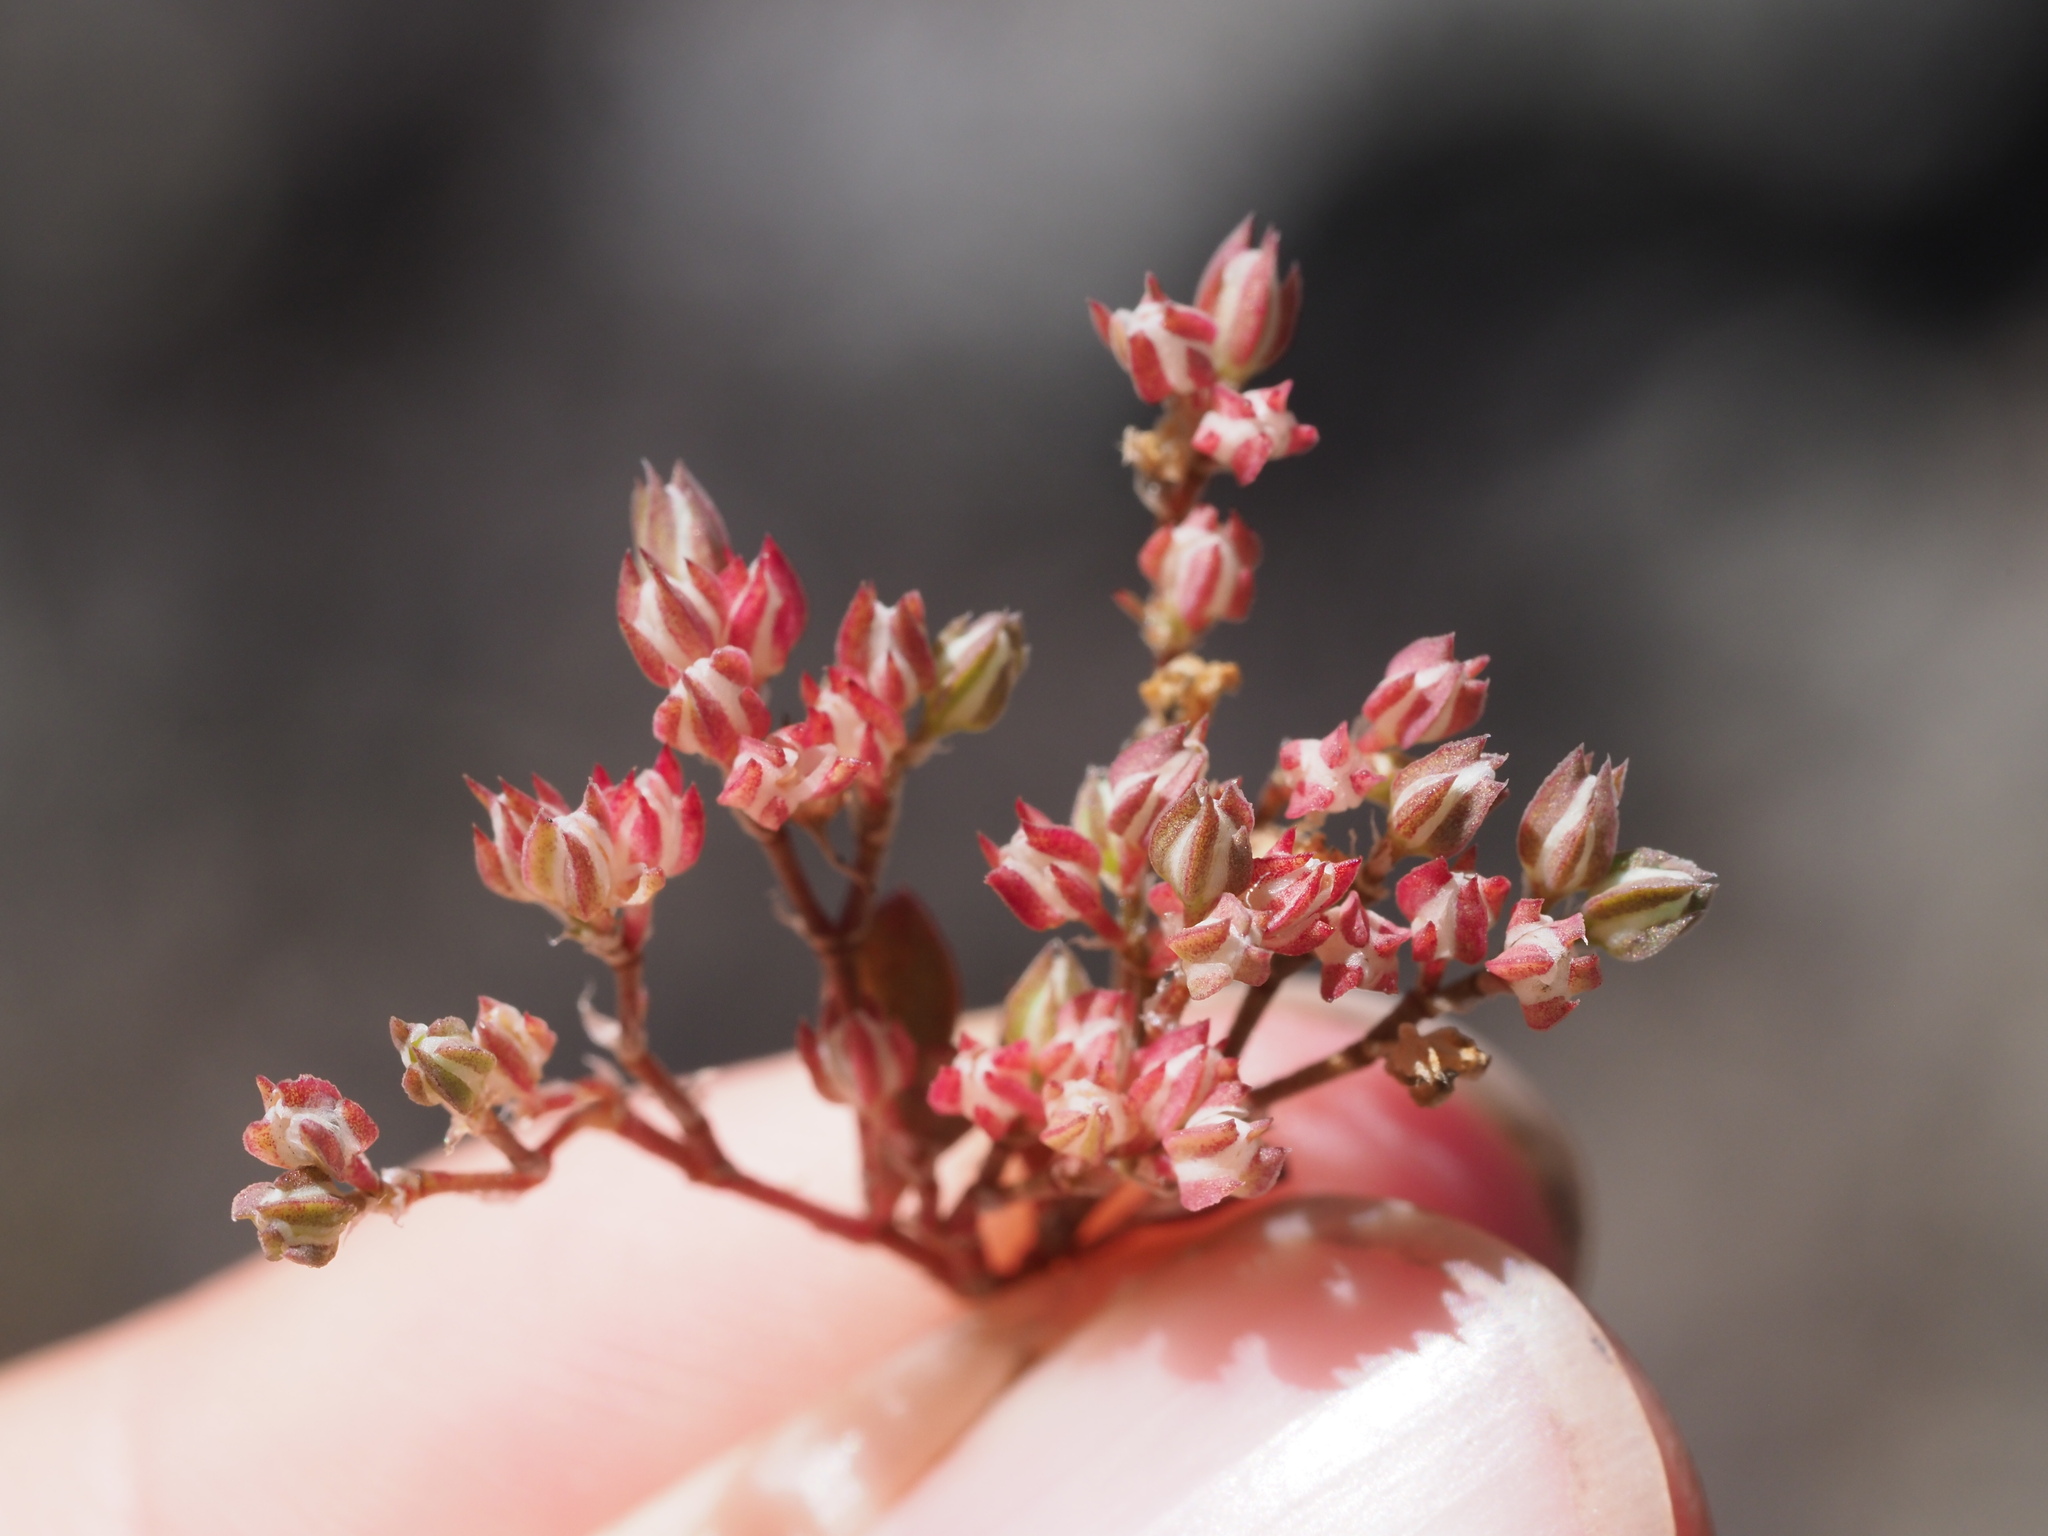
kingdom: Plantae
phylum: Tracheophyta
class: Magnoliopsida
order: Caryophyllales
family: Caryophyllaceae
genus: Polycarpon
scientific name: Polycarpon tetraphyllum
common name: Four-leaved all-seed
